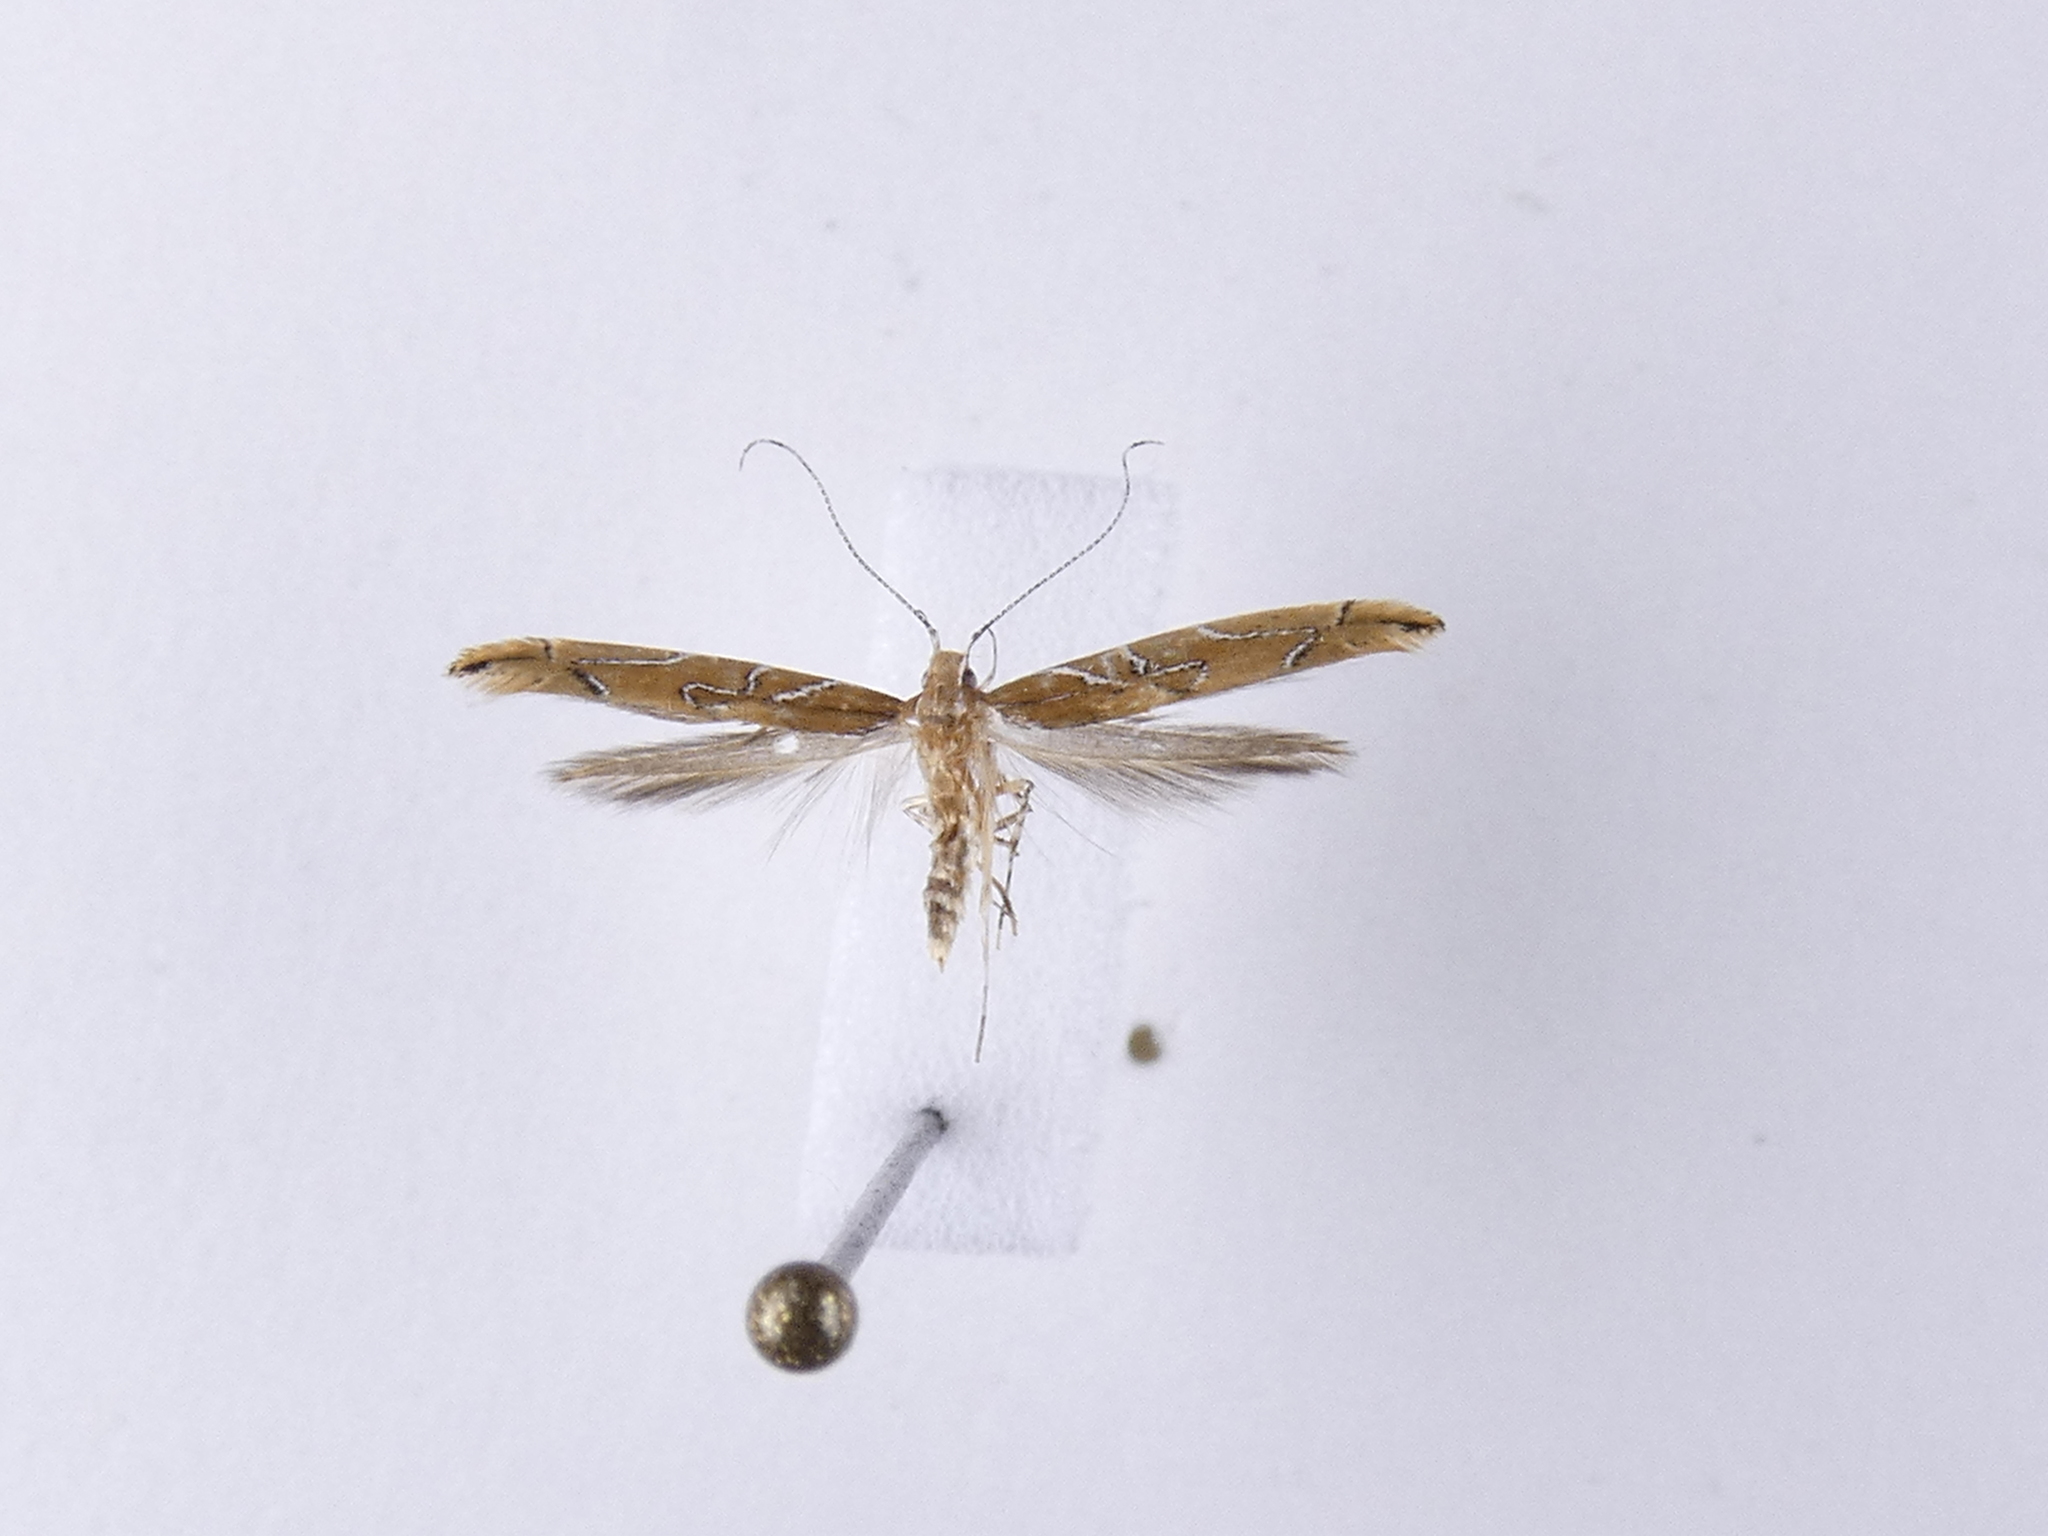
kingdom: Animalia
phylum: Arthropoda
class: Insecta
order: Lepidoptera
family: Cosmopterigidae
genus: Pyroderces
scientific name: Pyroderces apparitella
